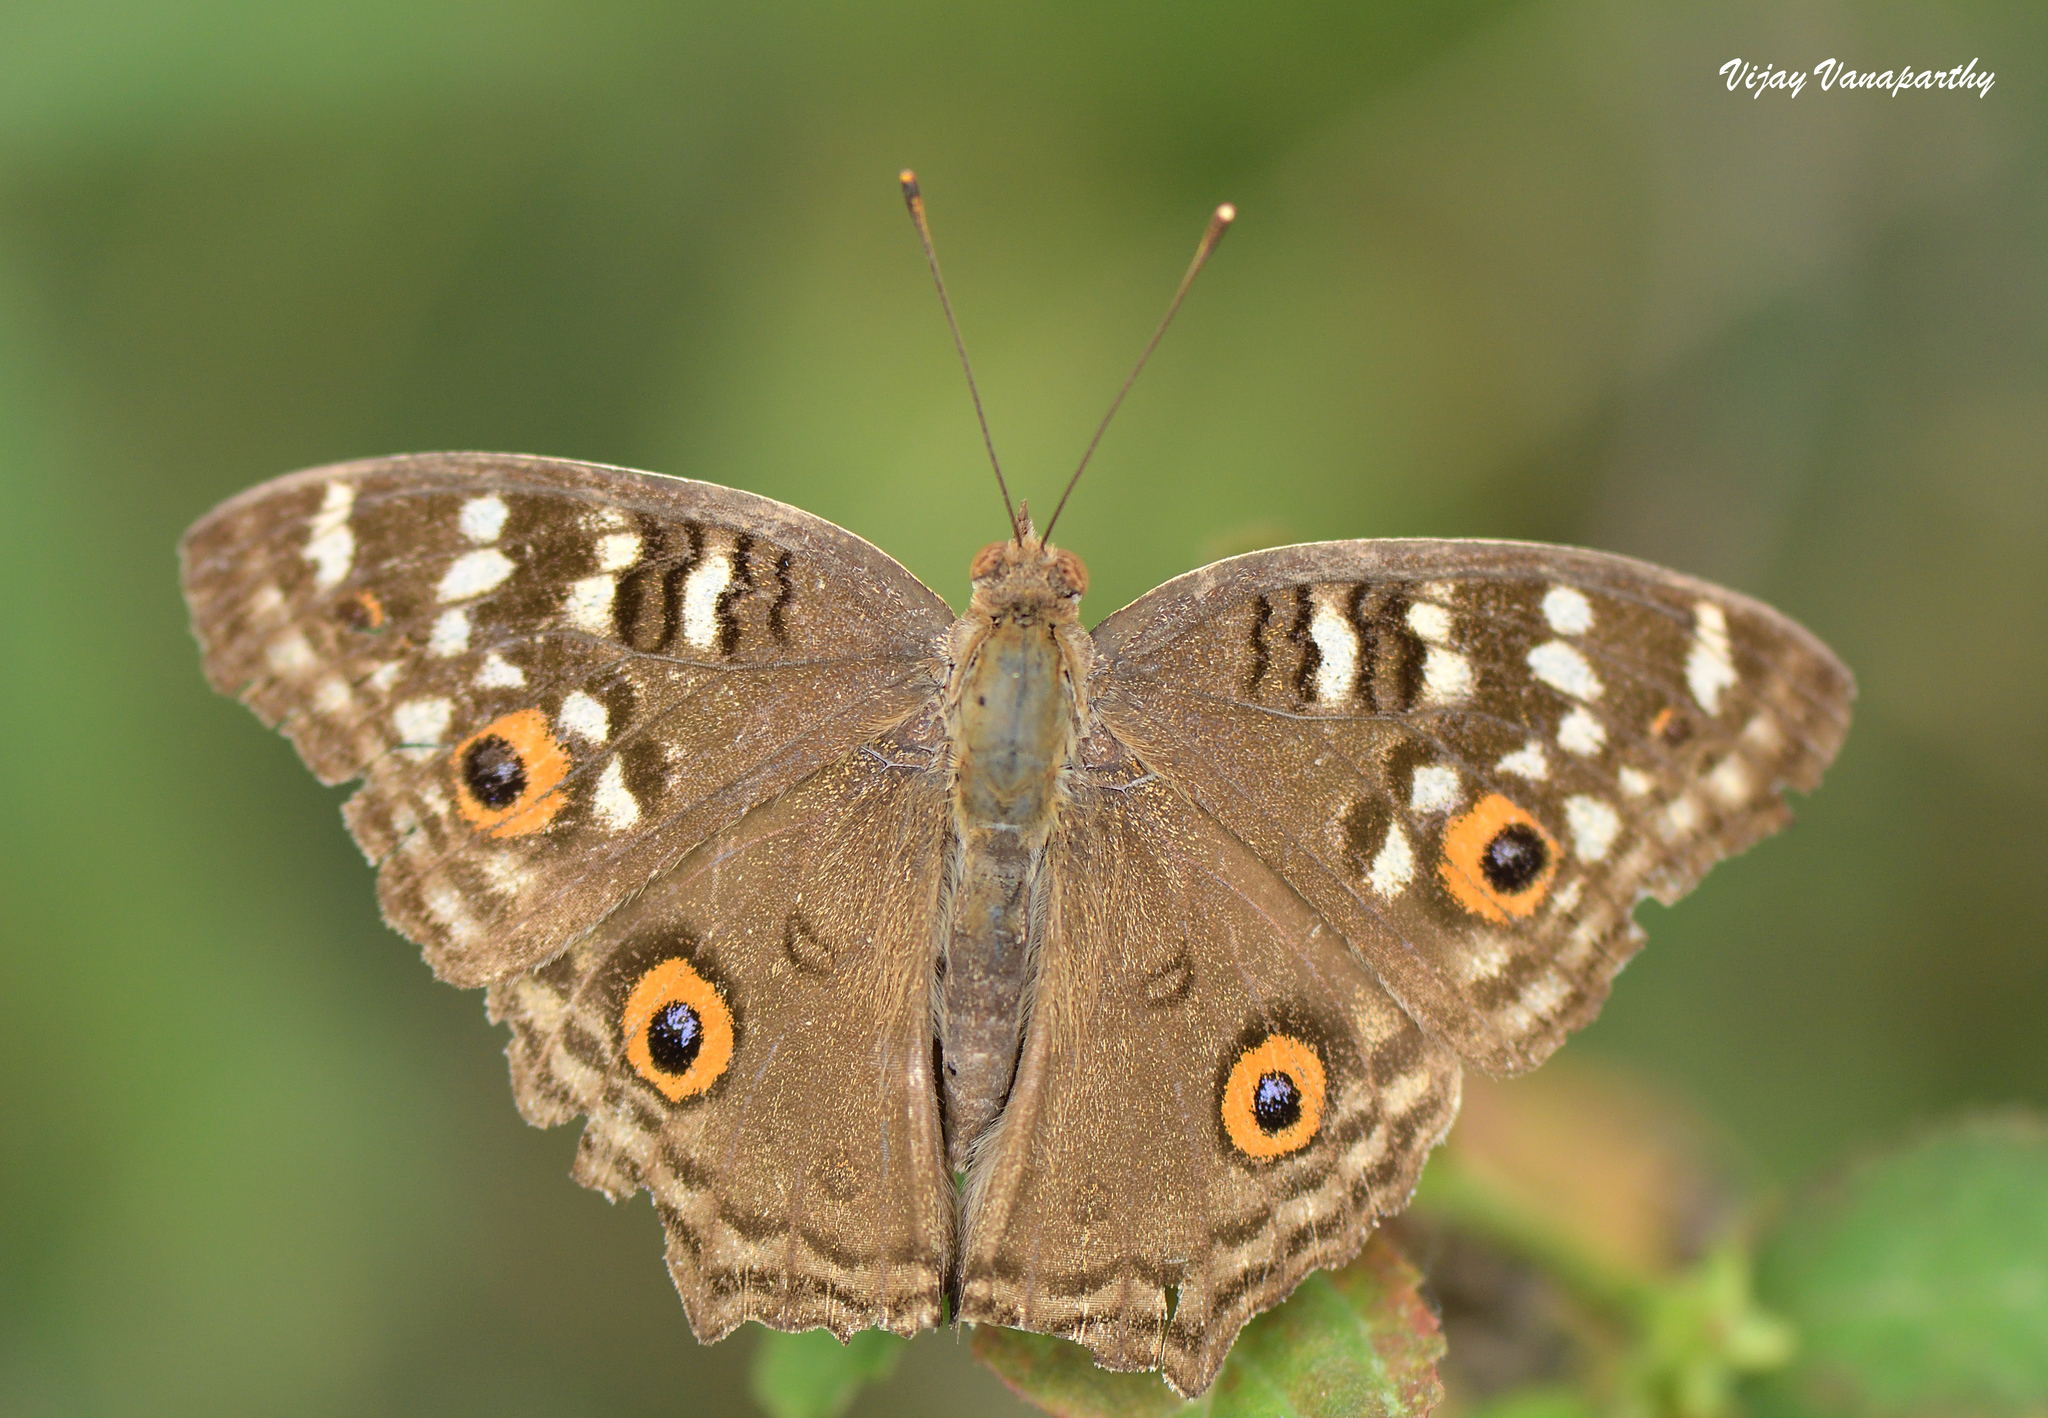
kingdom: Animalia
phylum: Arthropoda
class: Insecta
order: Lepidoptera
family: Nymphalidae
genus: Junonia
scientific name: Junonia lemonias
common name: Lemon pansy
